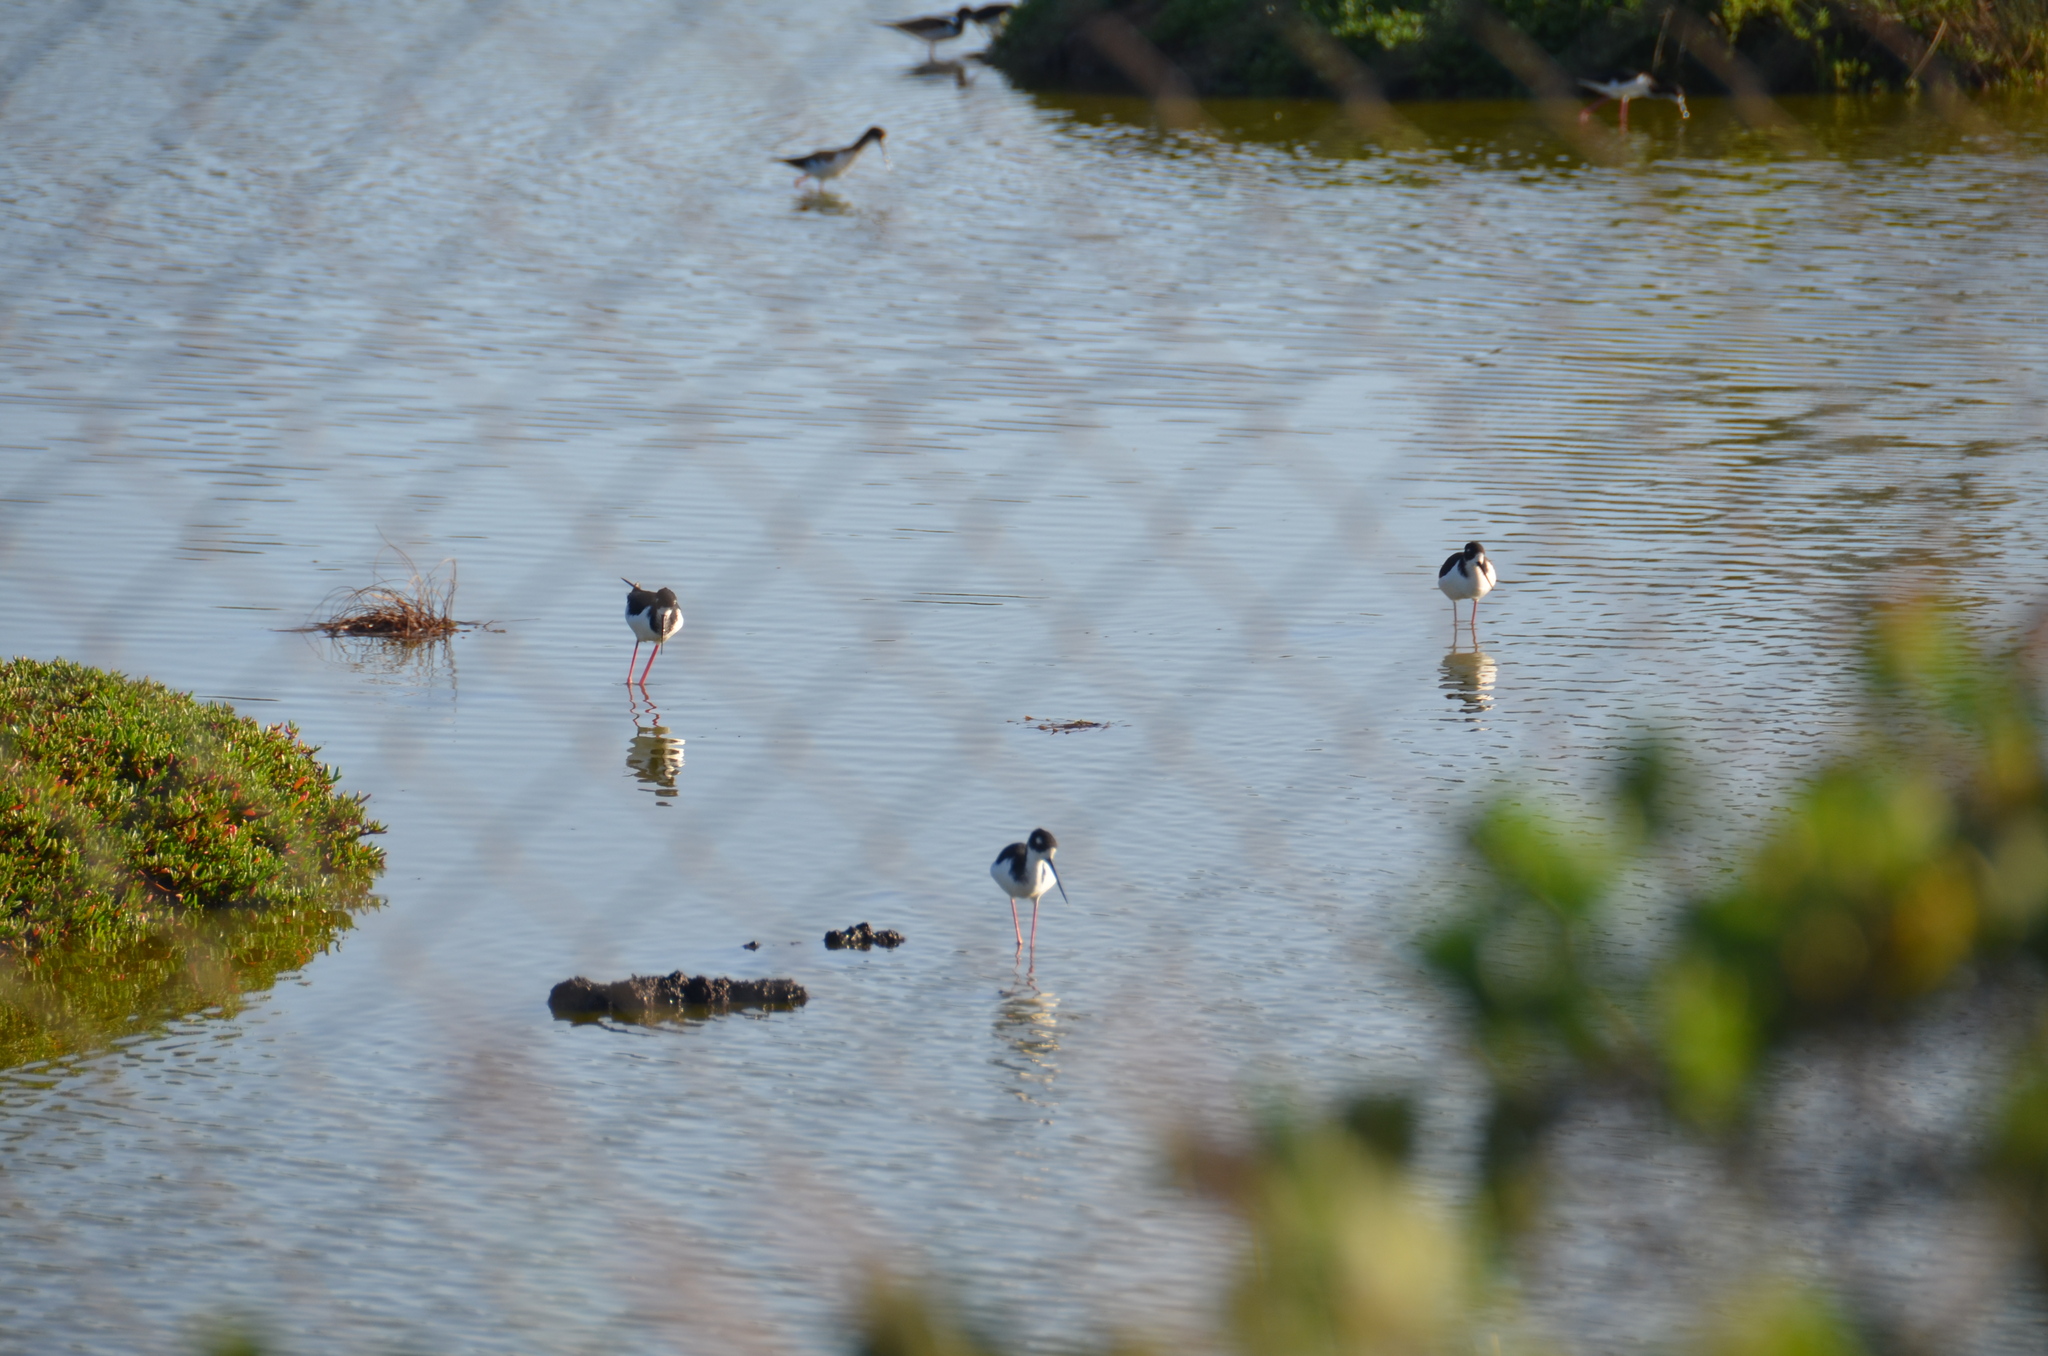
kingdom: Animalia
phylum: Chordata
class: Aves
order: Charadriiformes
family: Recurvirostridae
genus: Himantopus
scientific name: Himantopus mexicanus
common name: Black-necked stilt
